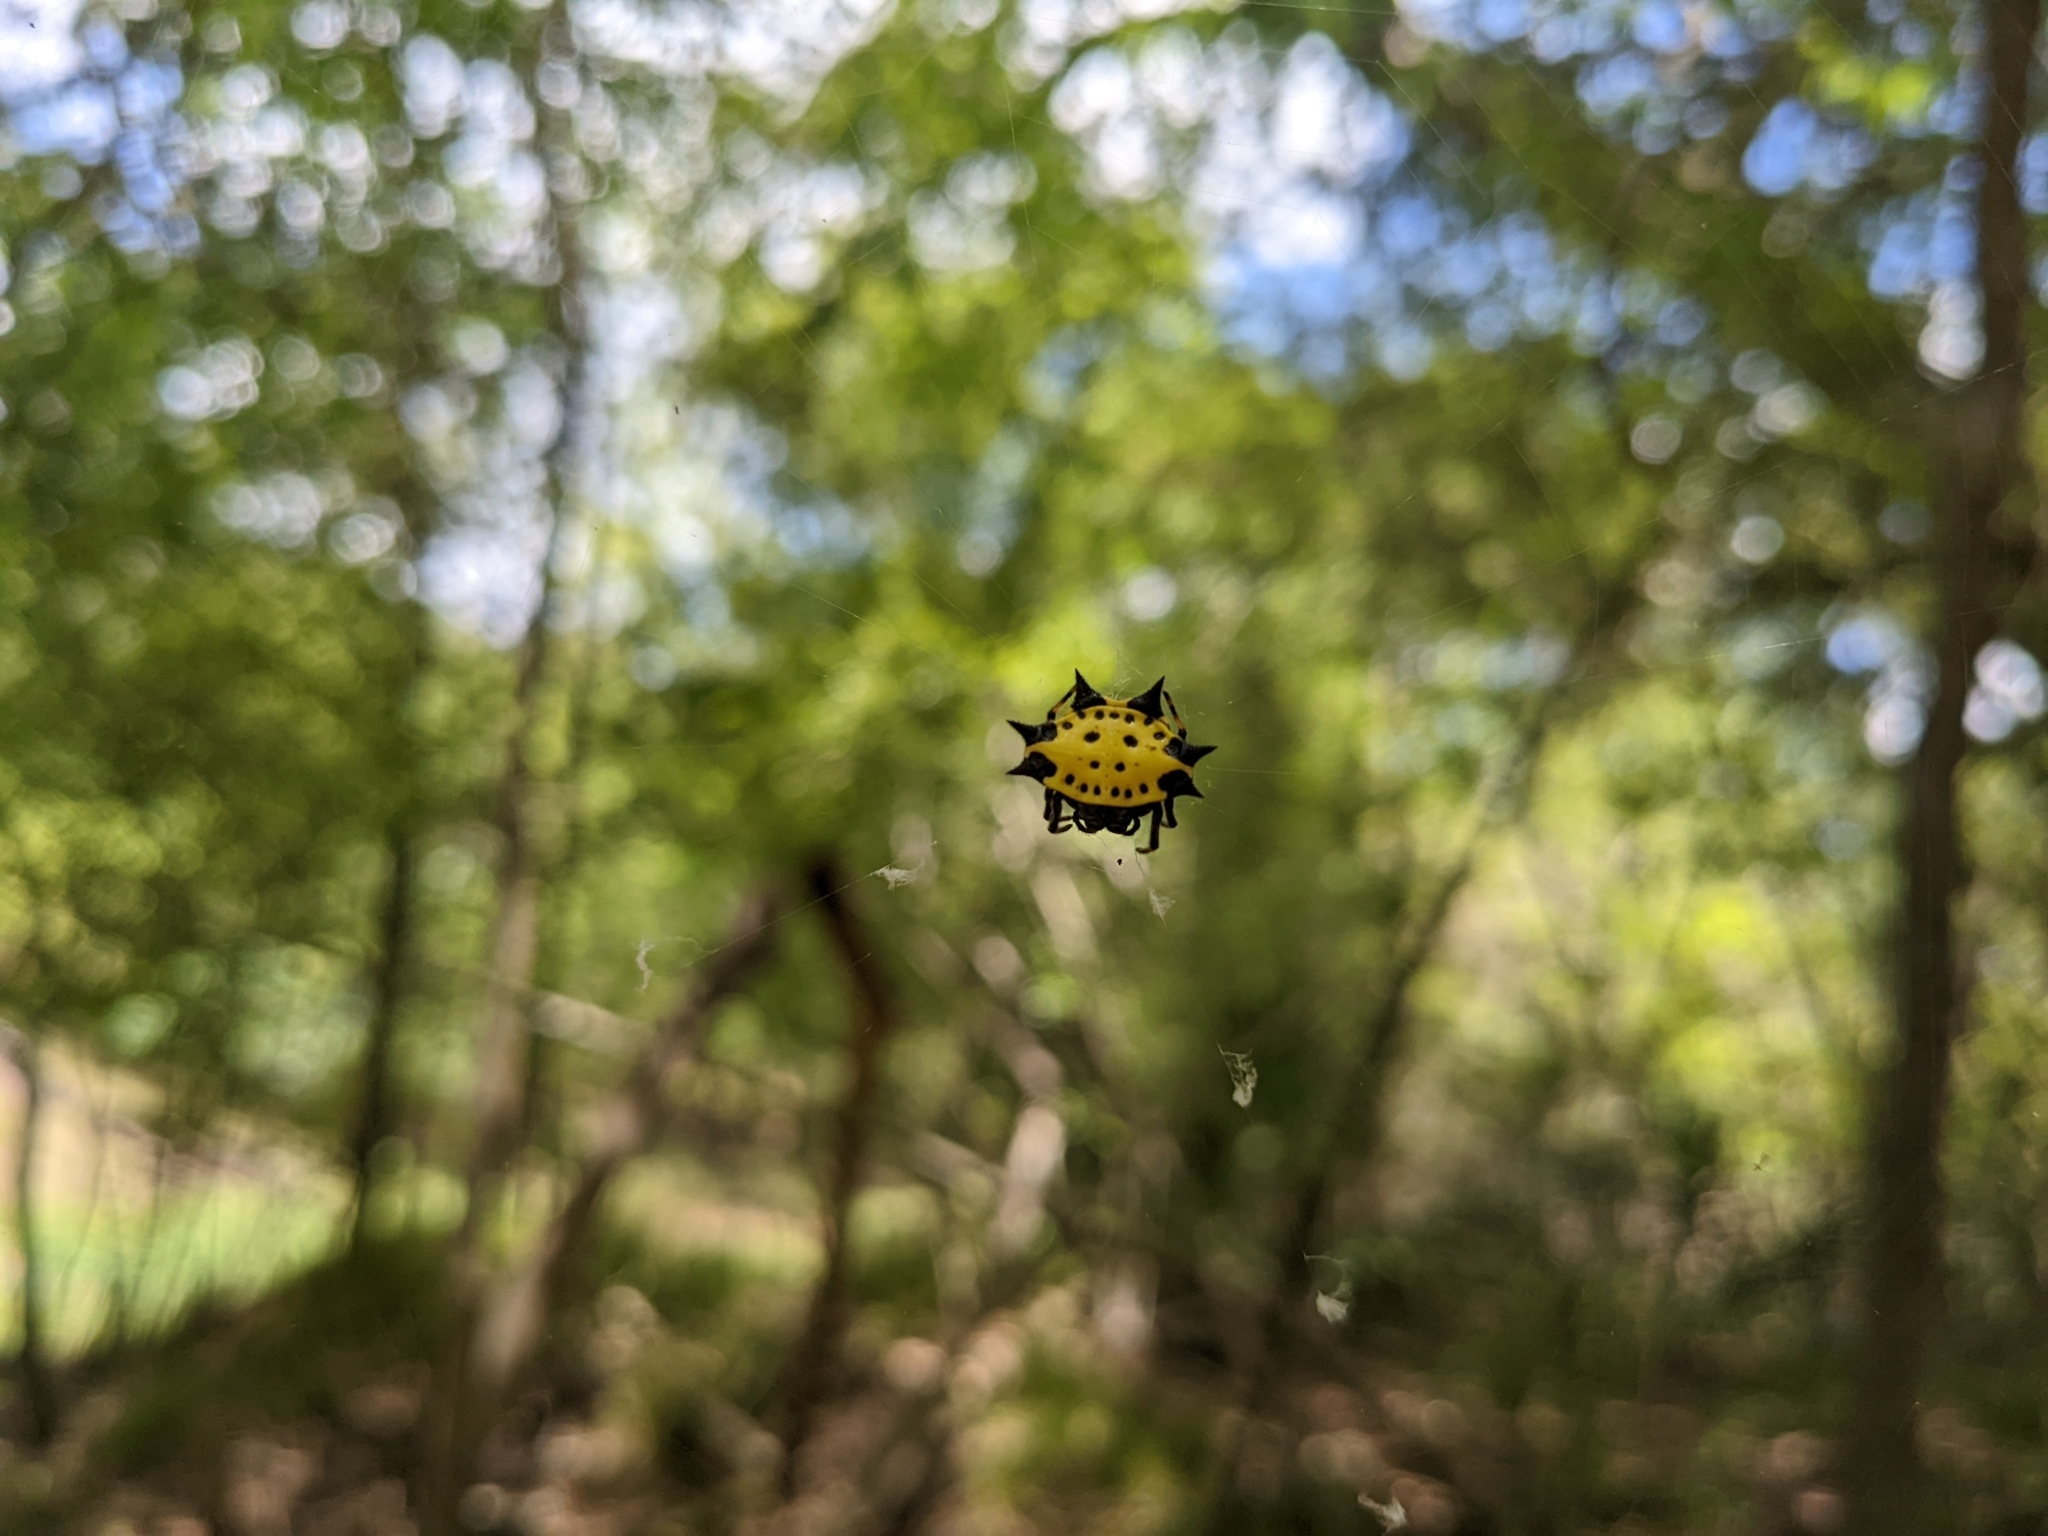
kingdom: Animalia
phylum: Arthropoda
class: Arachnida
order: Araneae
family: Araneidae
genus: Gasteracantha
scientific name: Gasteracantha cancriformis
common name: Orb weavers
